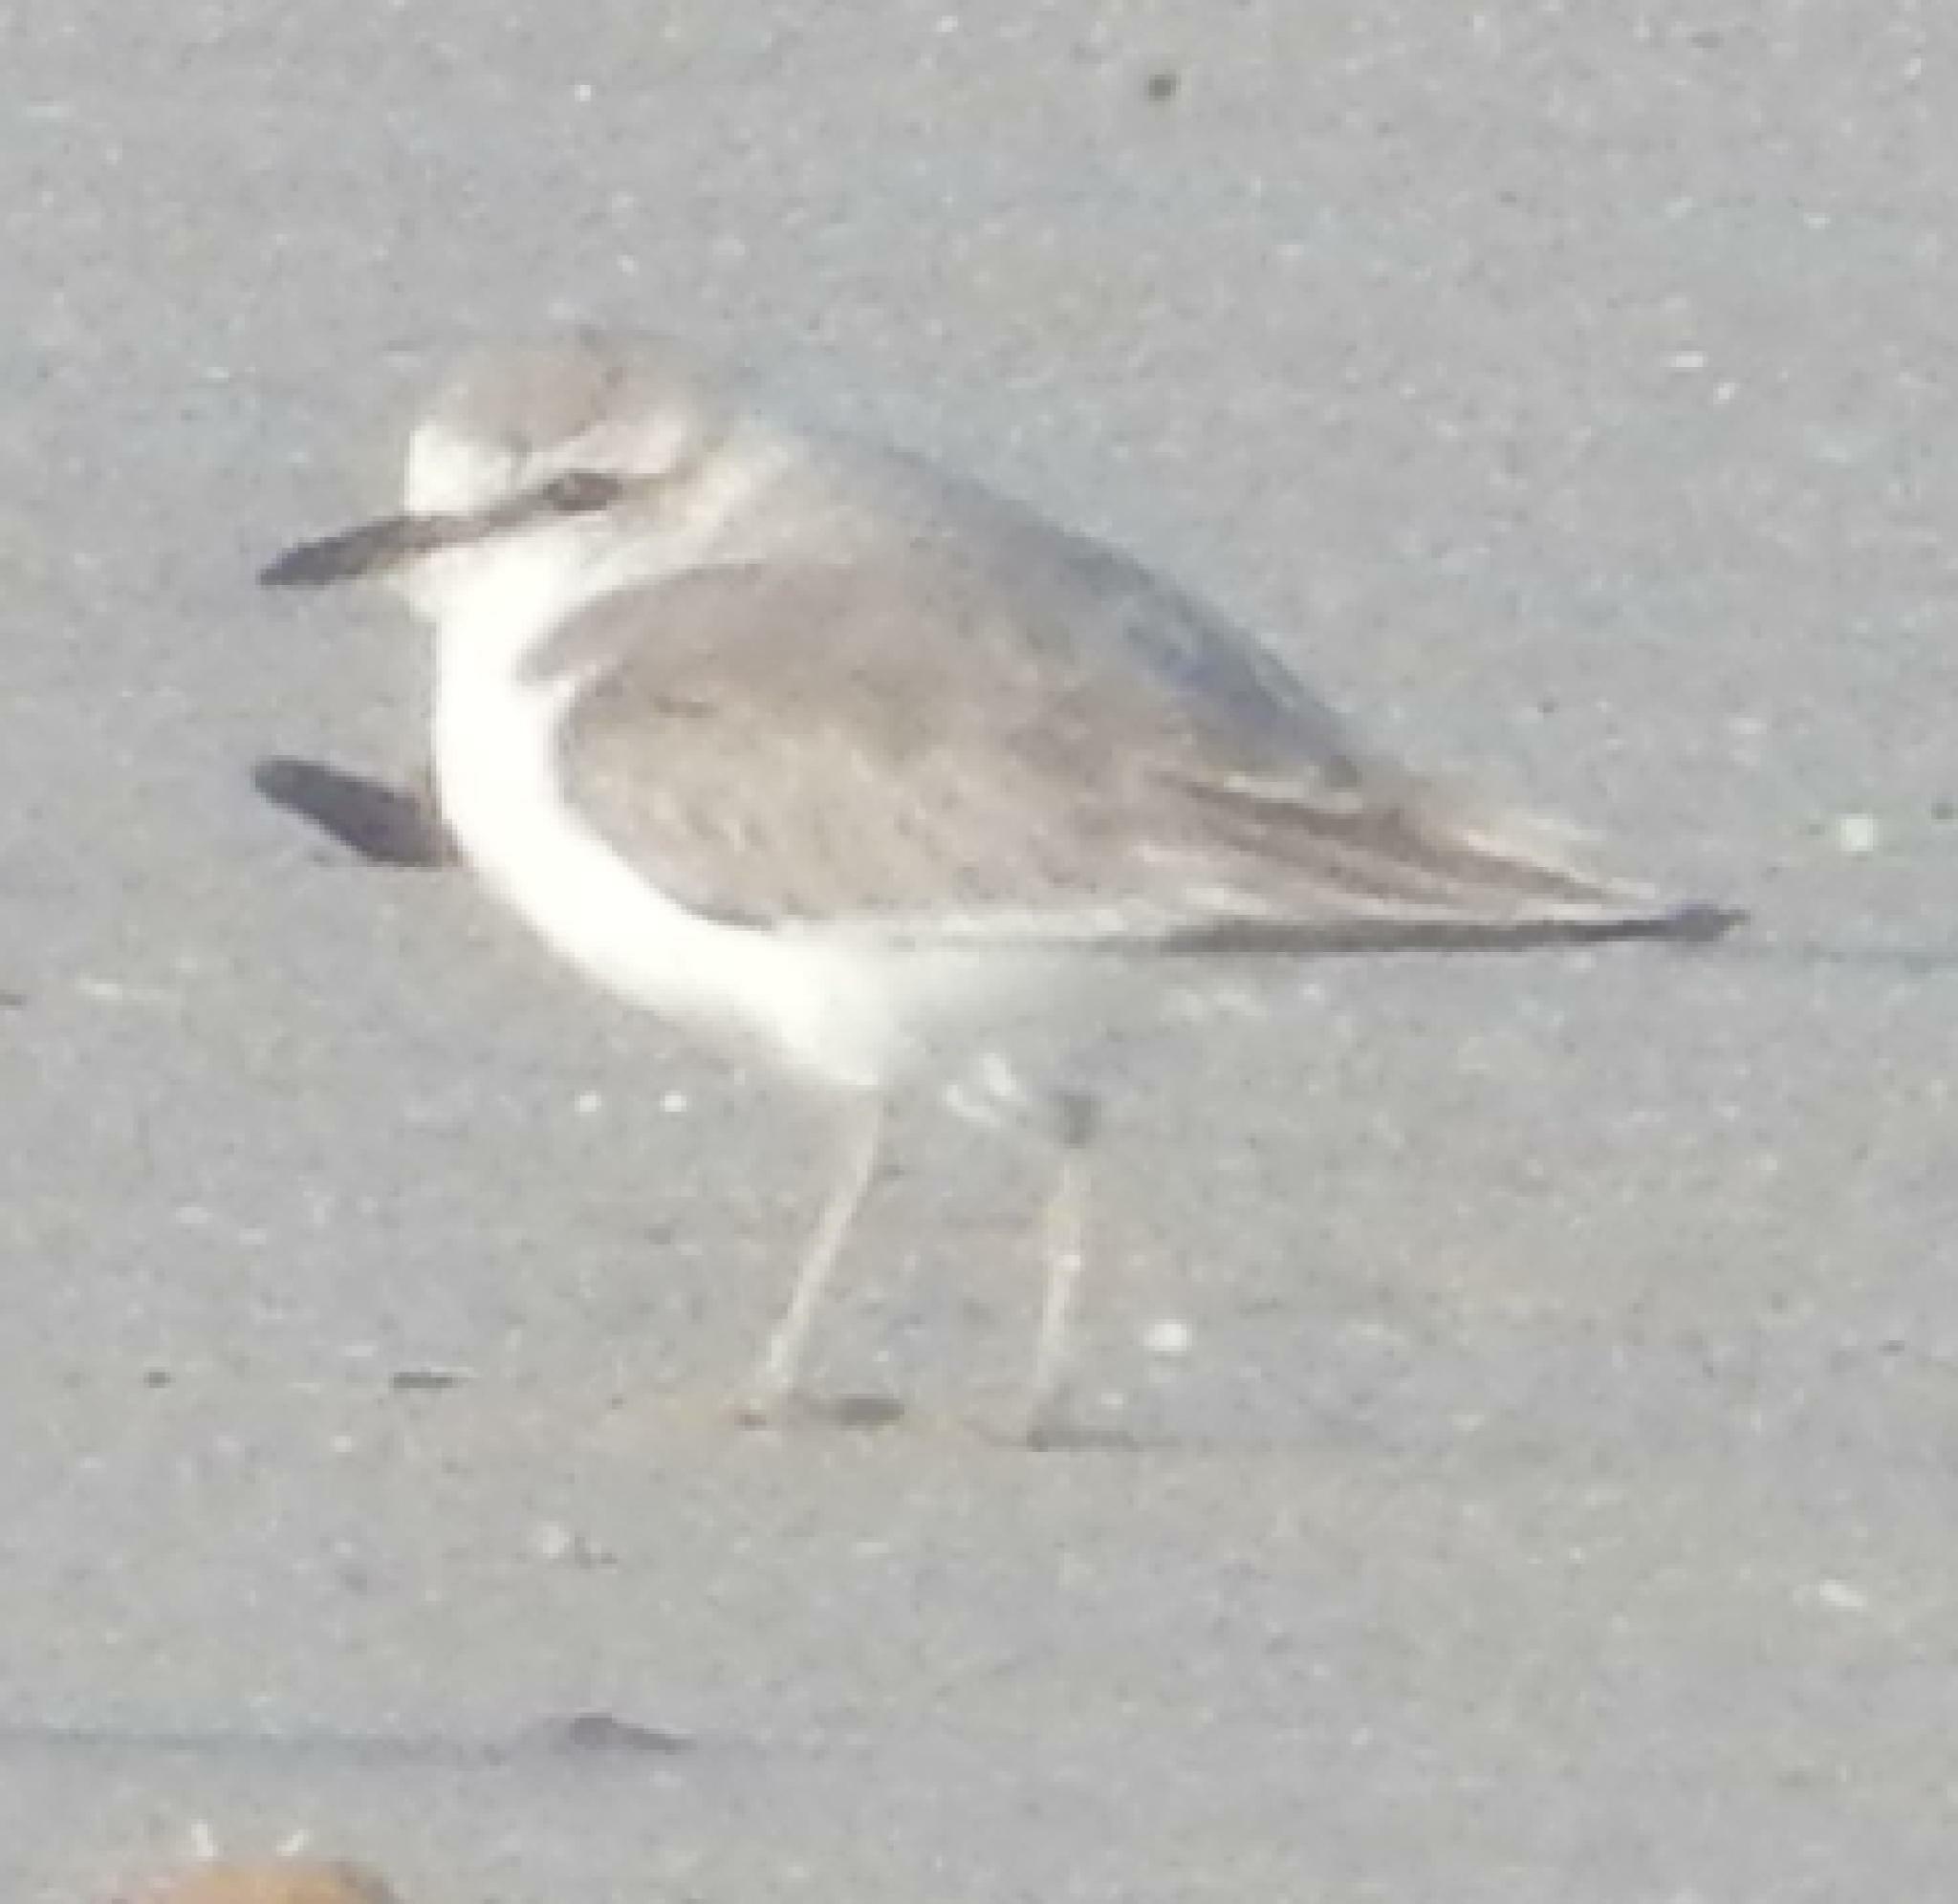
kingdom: Animalia
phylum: Chordata
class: Aves
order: Charadriiformes
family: Charadriidae
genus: Anarhynchus
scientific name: Anarhynchus
